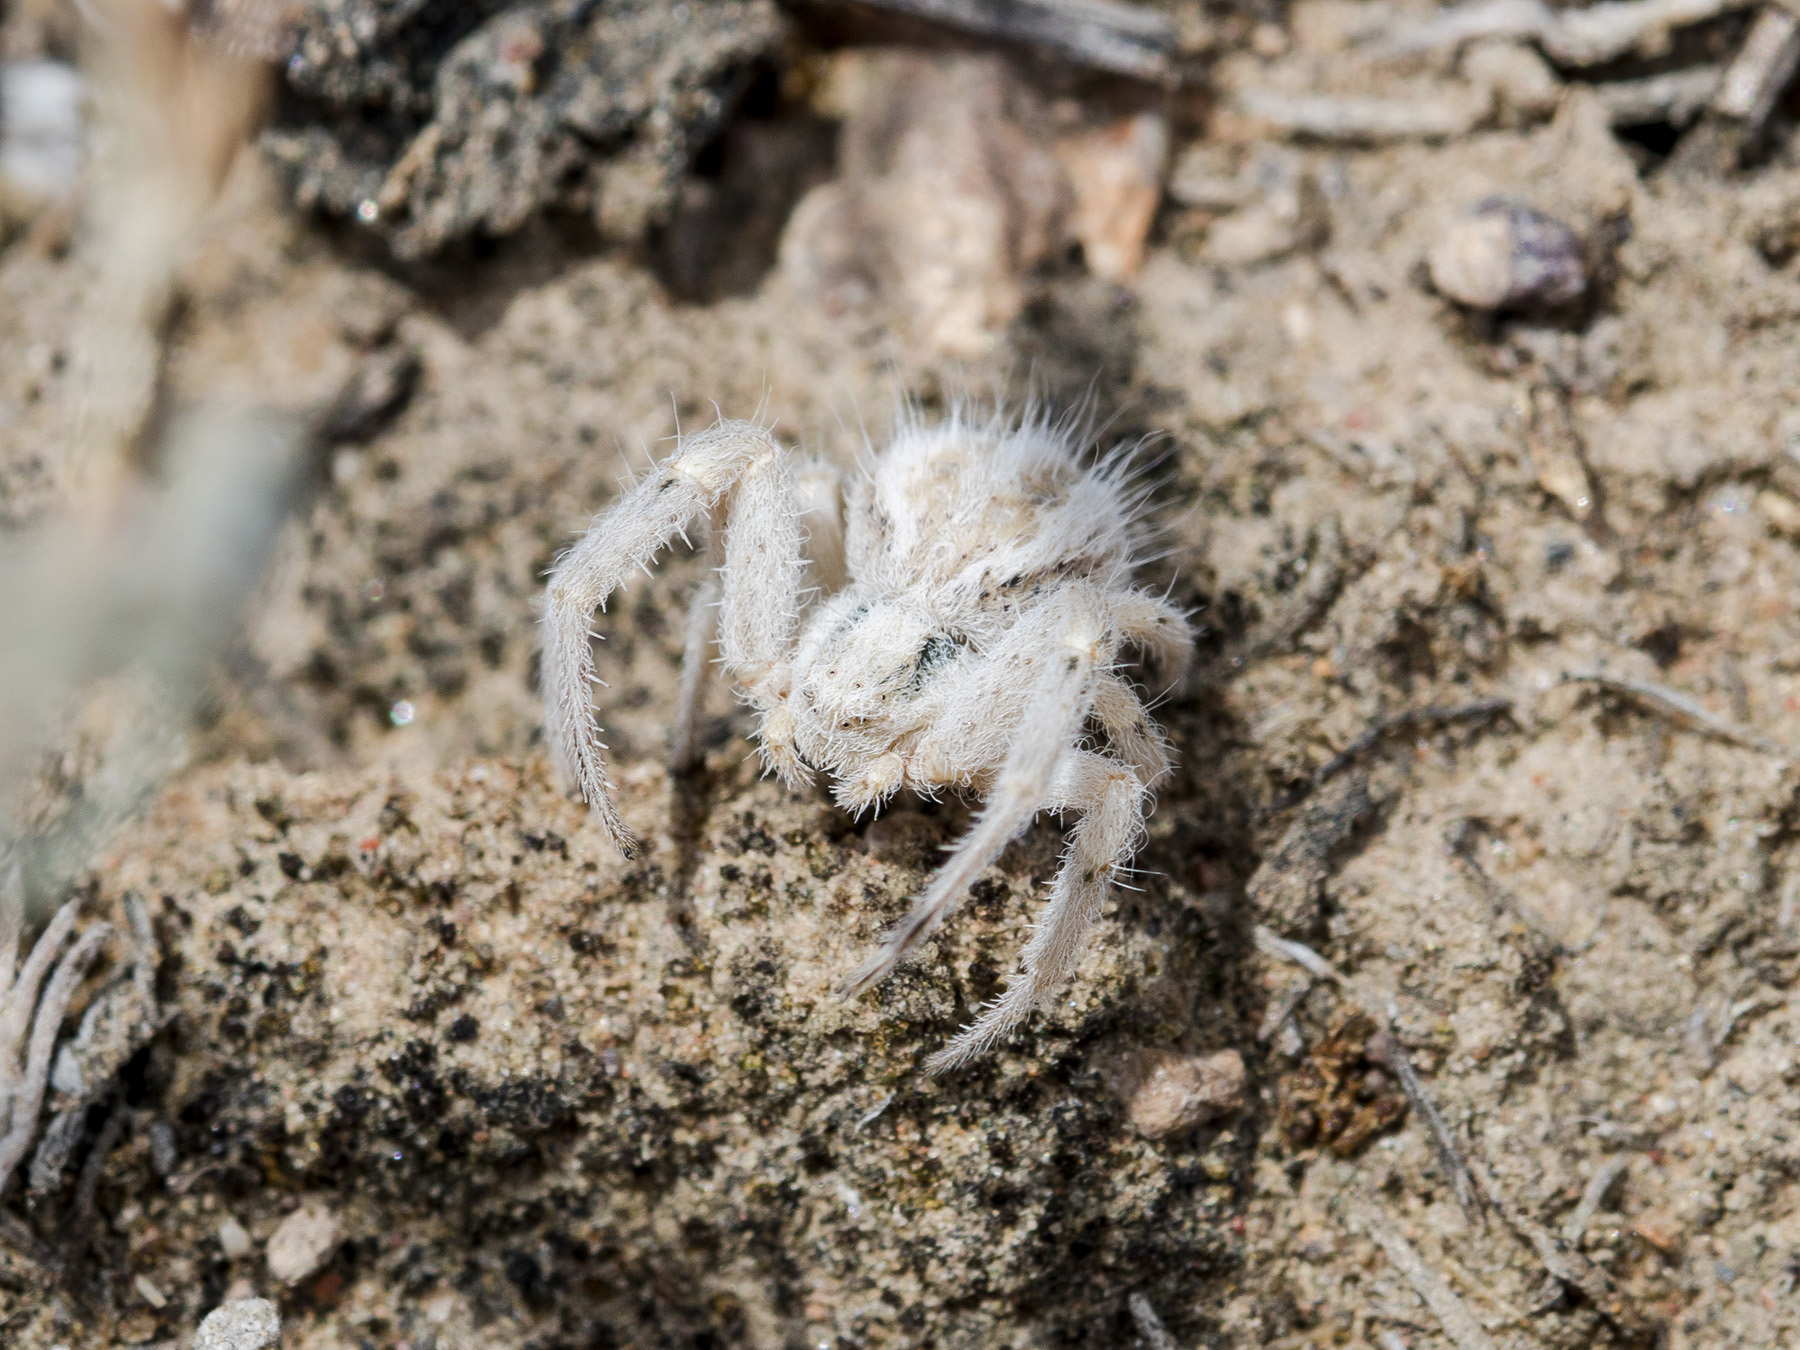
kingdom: Animalia
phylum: Arthropoda
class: Arachnida
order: Araneae
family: Thomisidae
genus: Heriaeus
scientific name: Heriaeus horridus
